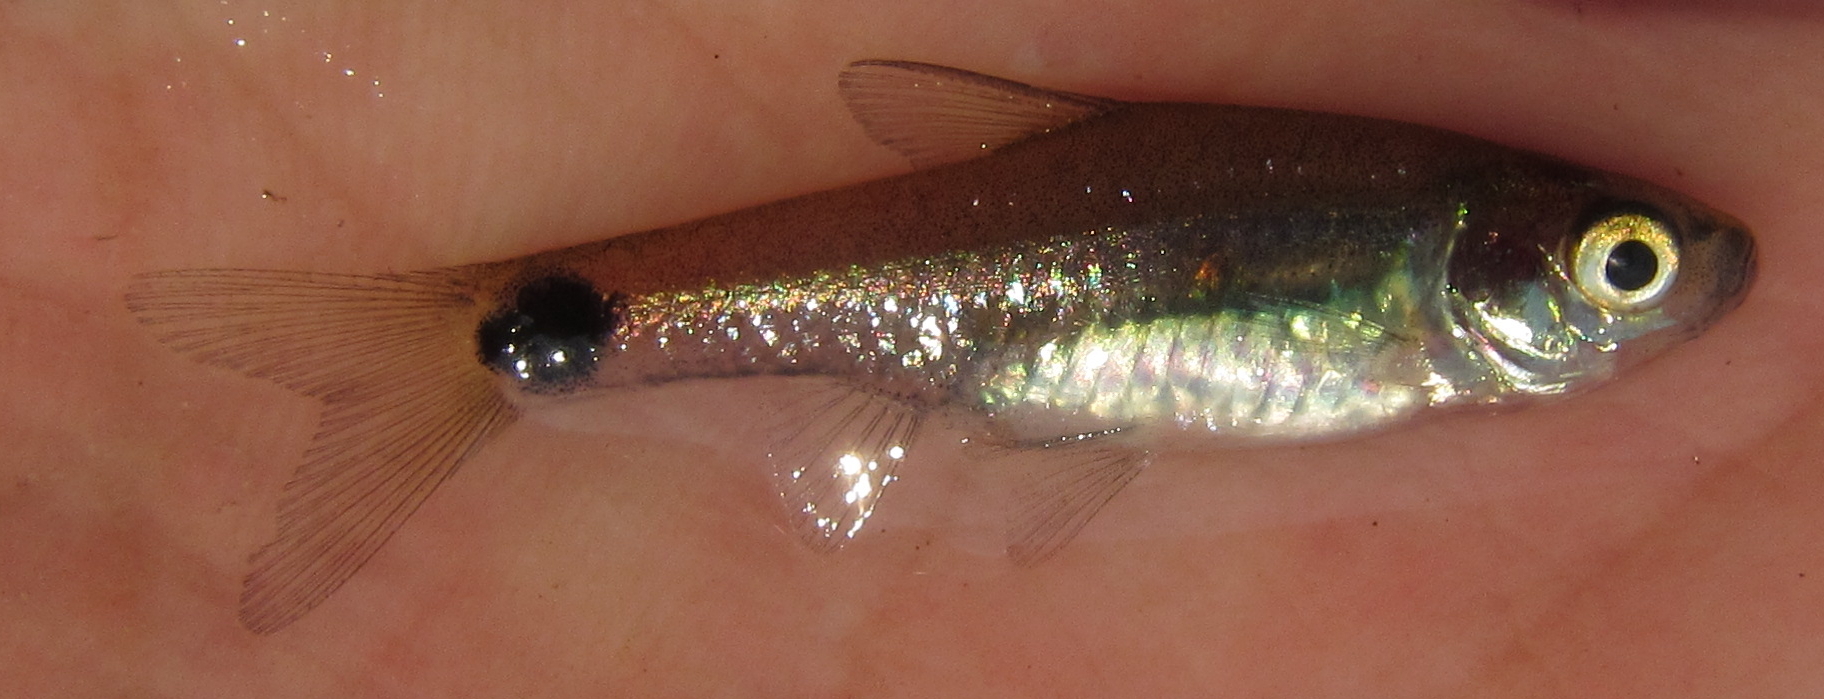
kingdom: Animalia
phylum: Chordata
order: Cypriniformes
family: Cyprinidae
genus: Enteromius
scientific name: Enteromius afrovernayi
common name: Spottail barb
